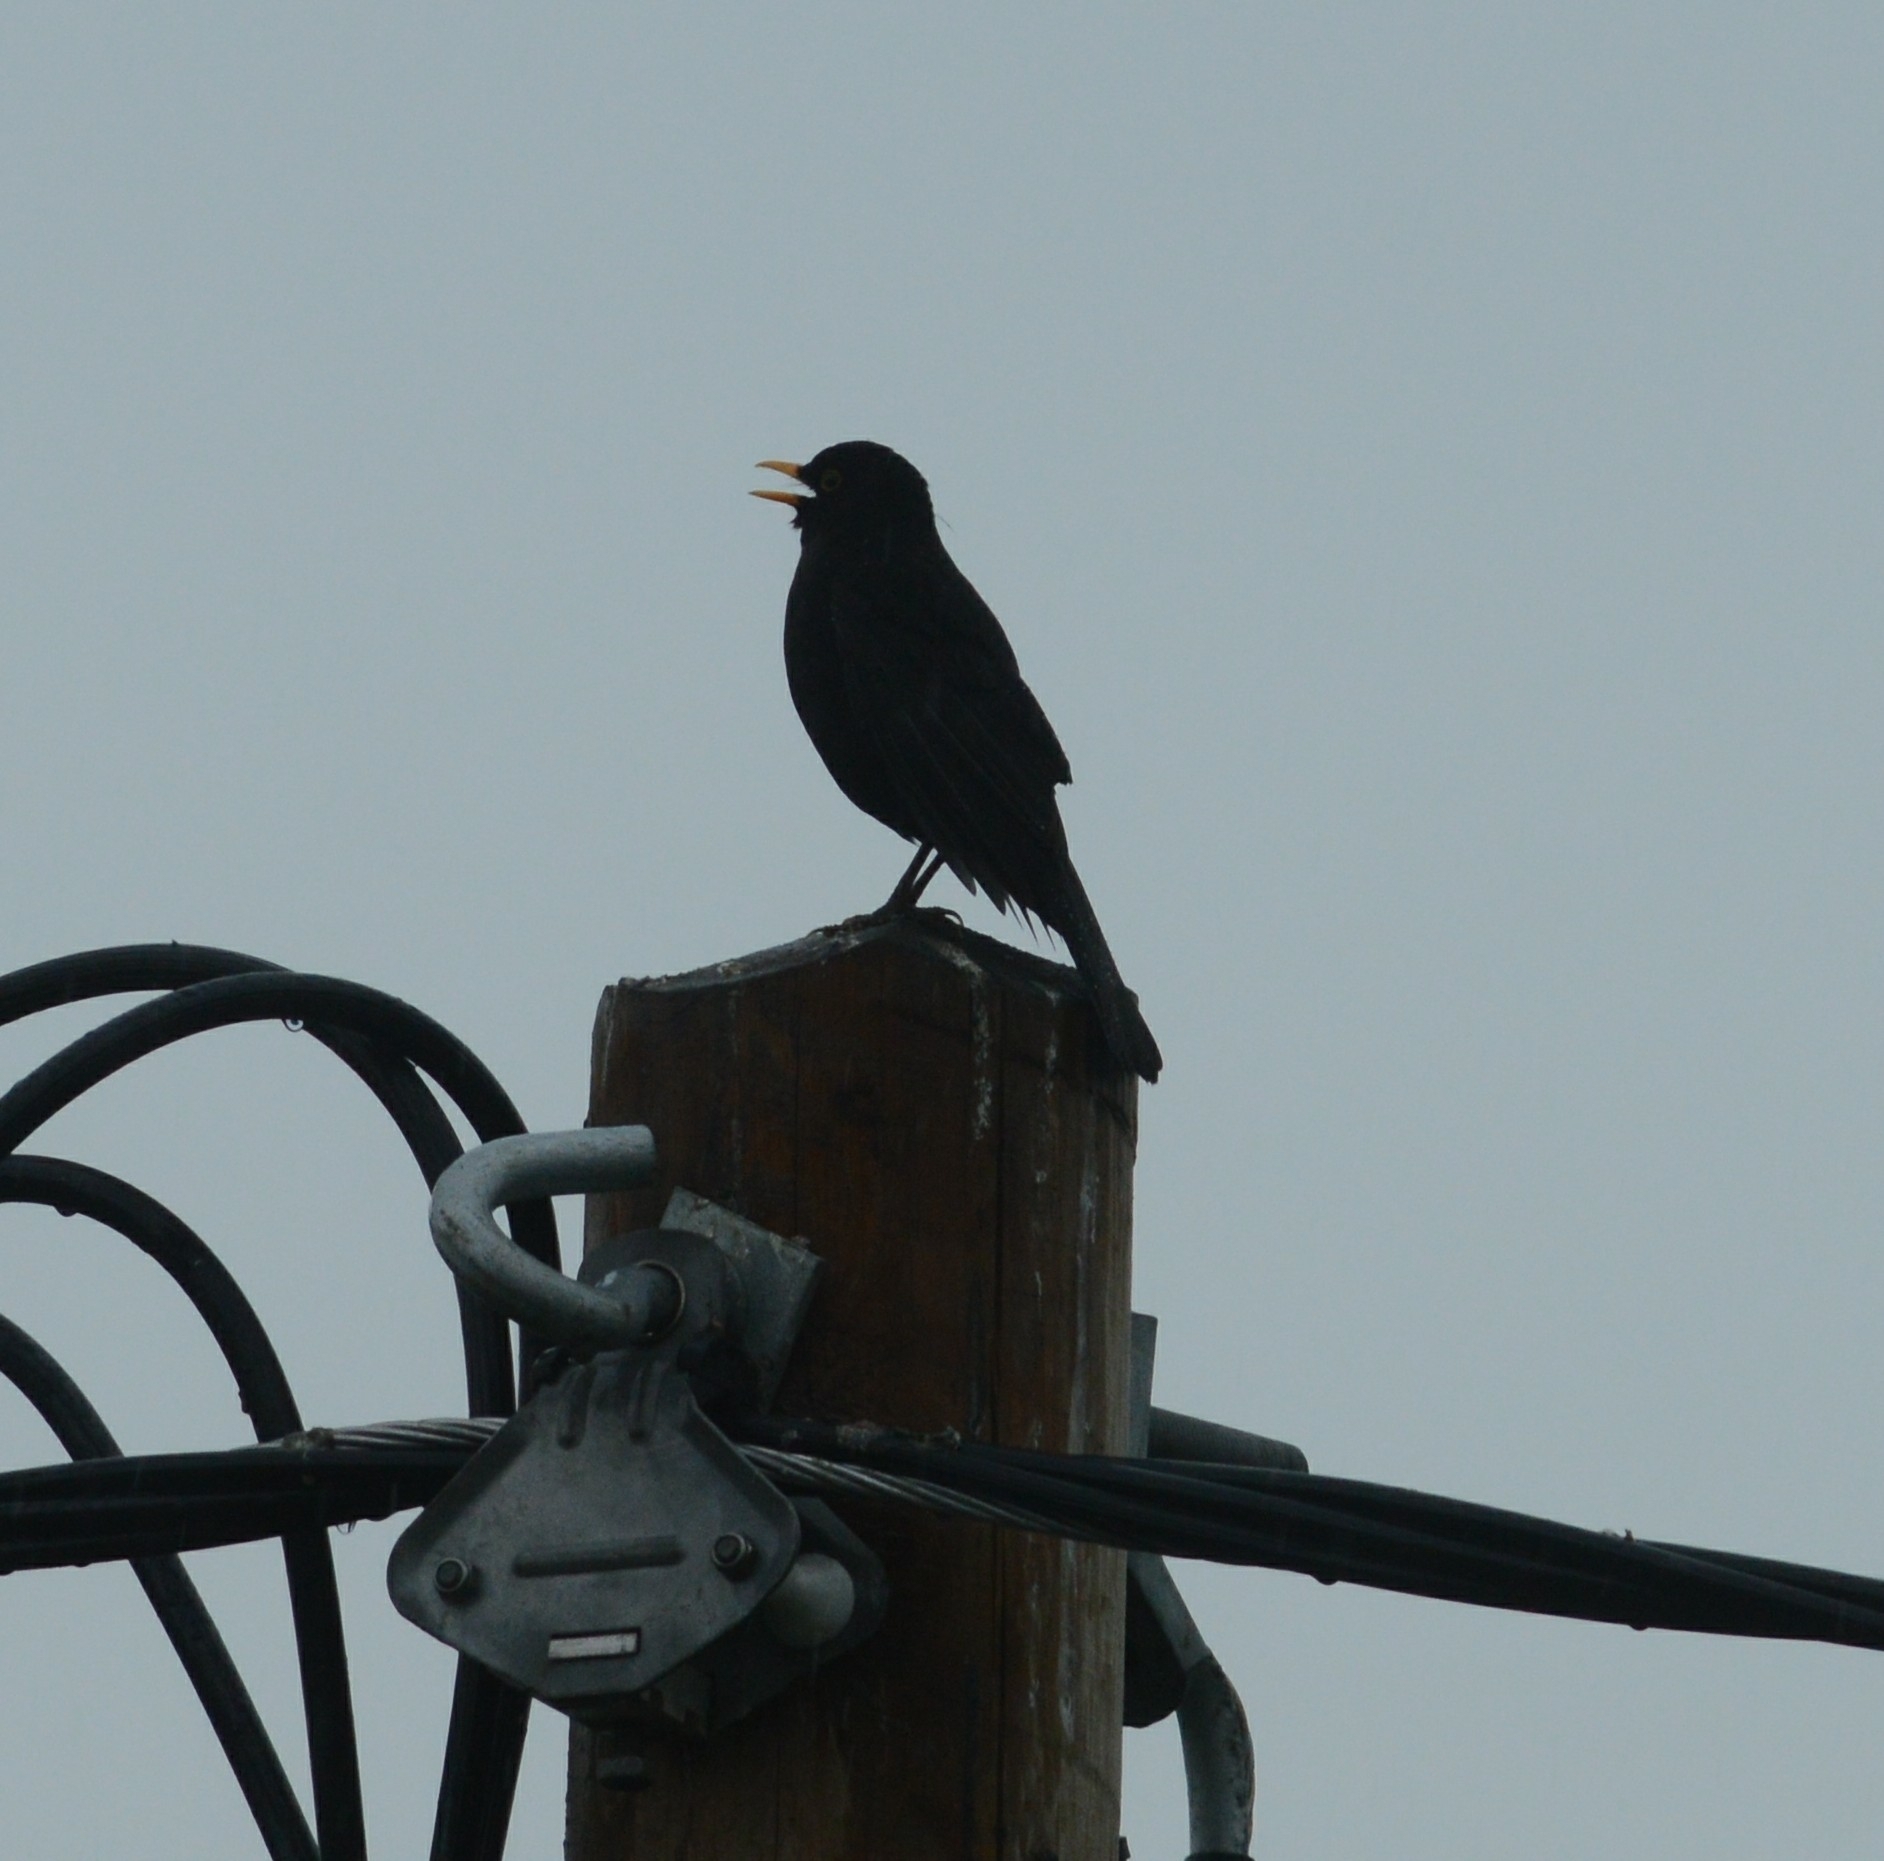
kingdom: Animalia
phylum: Chordata
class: Aves
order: Passeriformes
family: Turdidae
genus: Turdus
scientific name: Turdus merula
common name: Common blackbird
